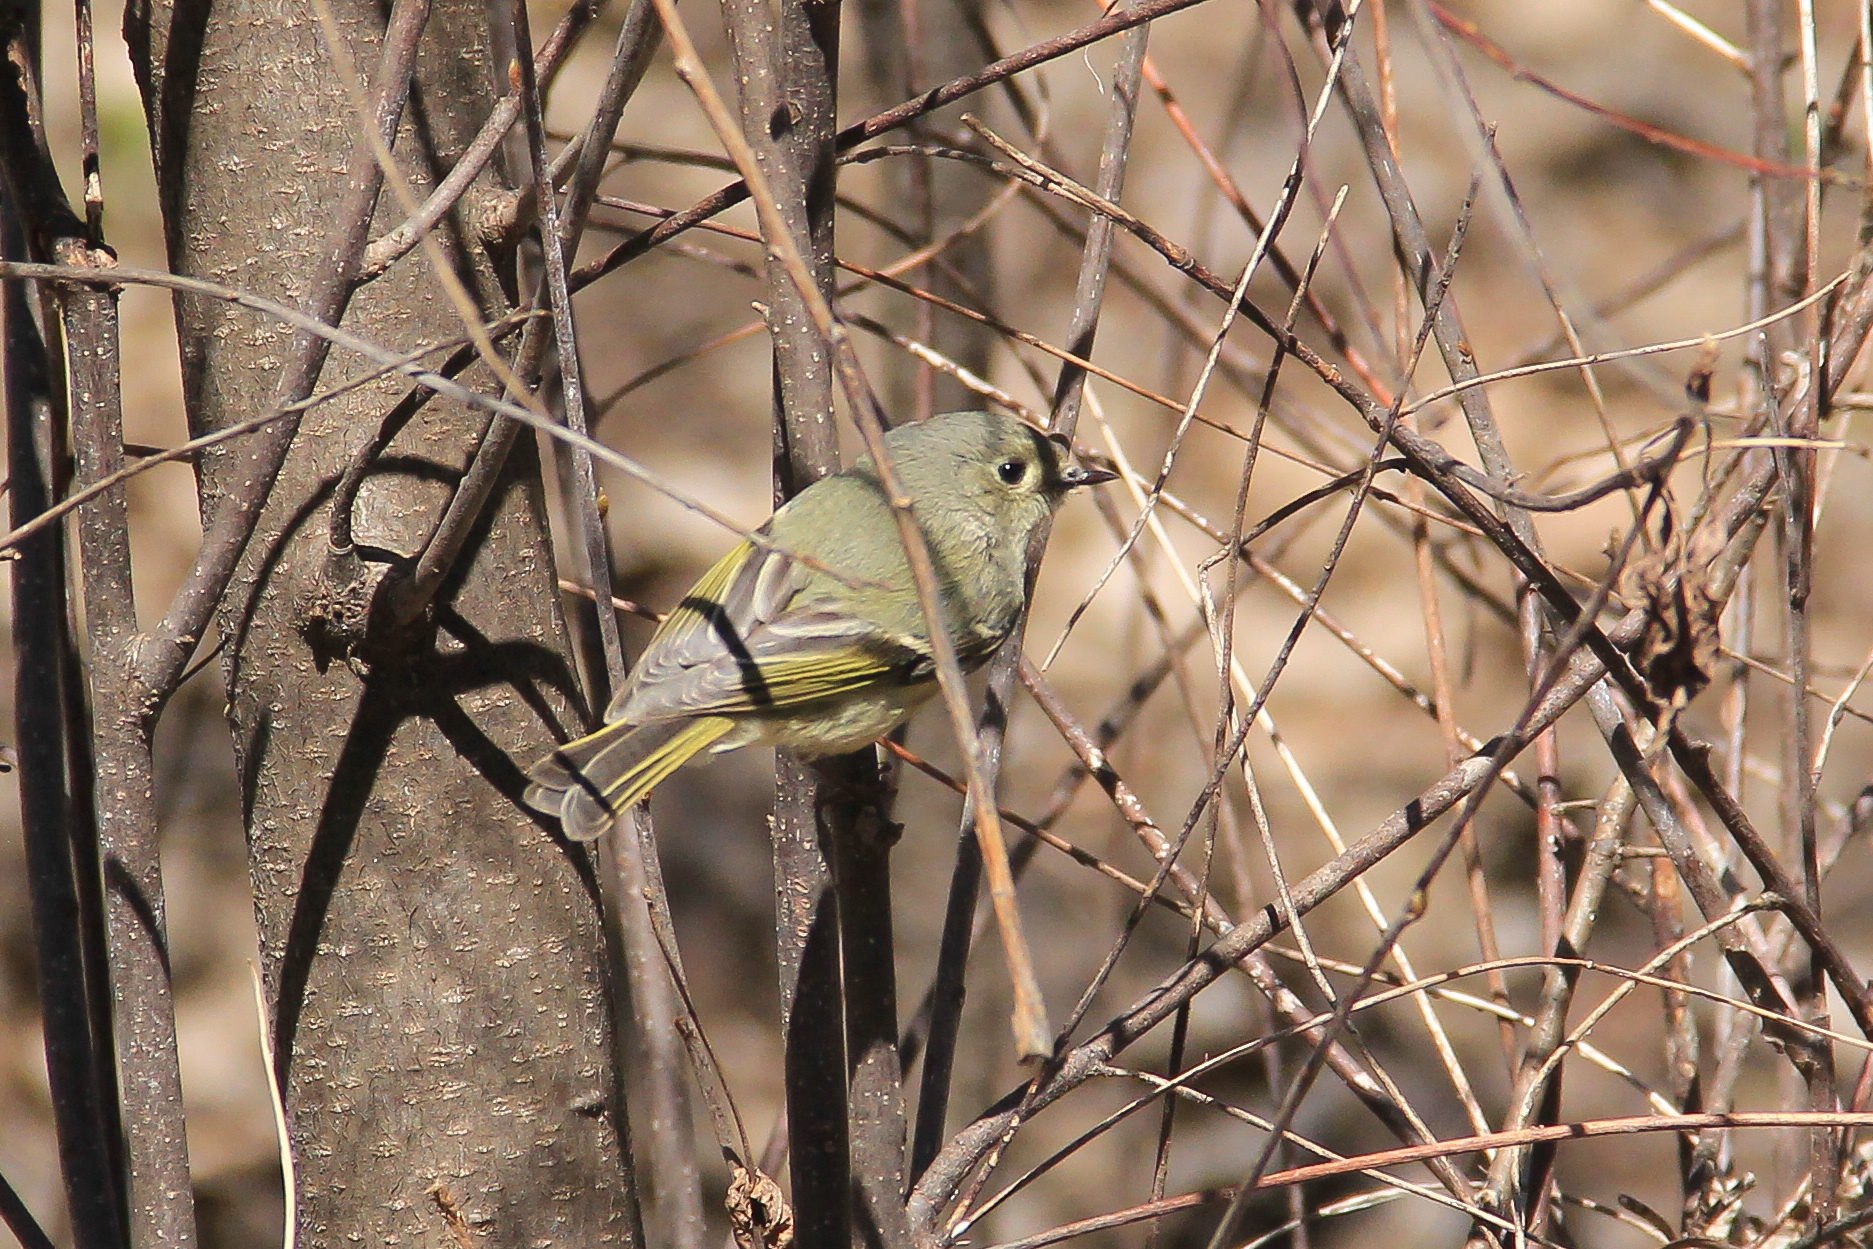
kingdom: Animalia
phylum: Chordata
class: Aves
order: Passeriformes
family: Regulidae
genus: Regulus
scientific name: Regulus calendula
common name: Ruby-crowned kinglet
